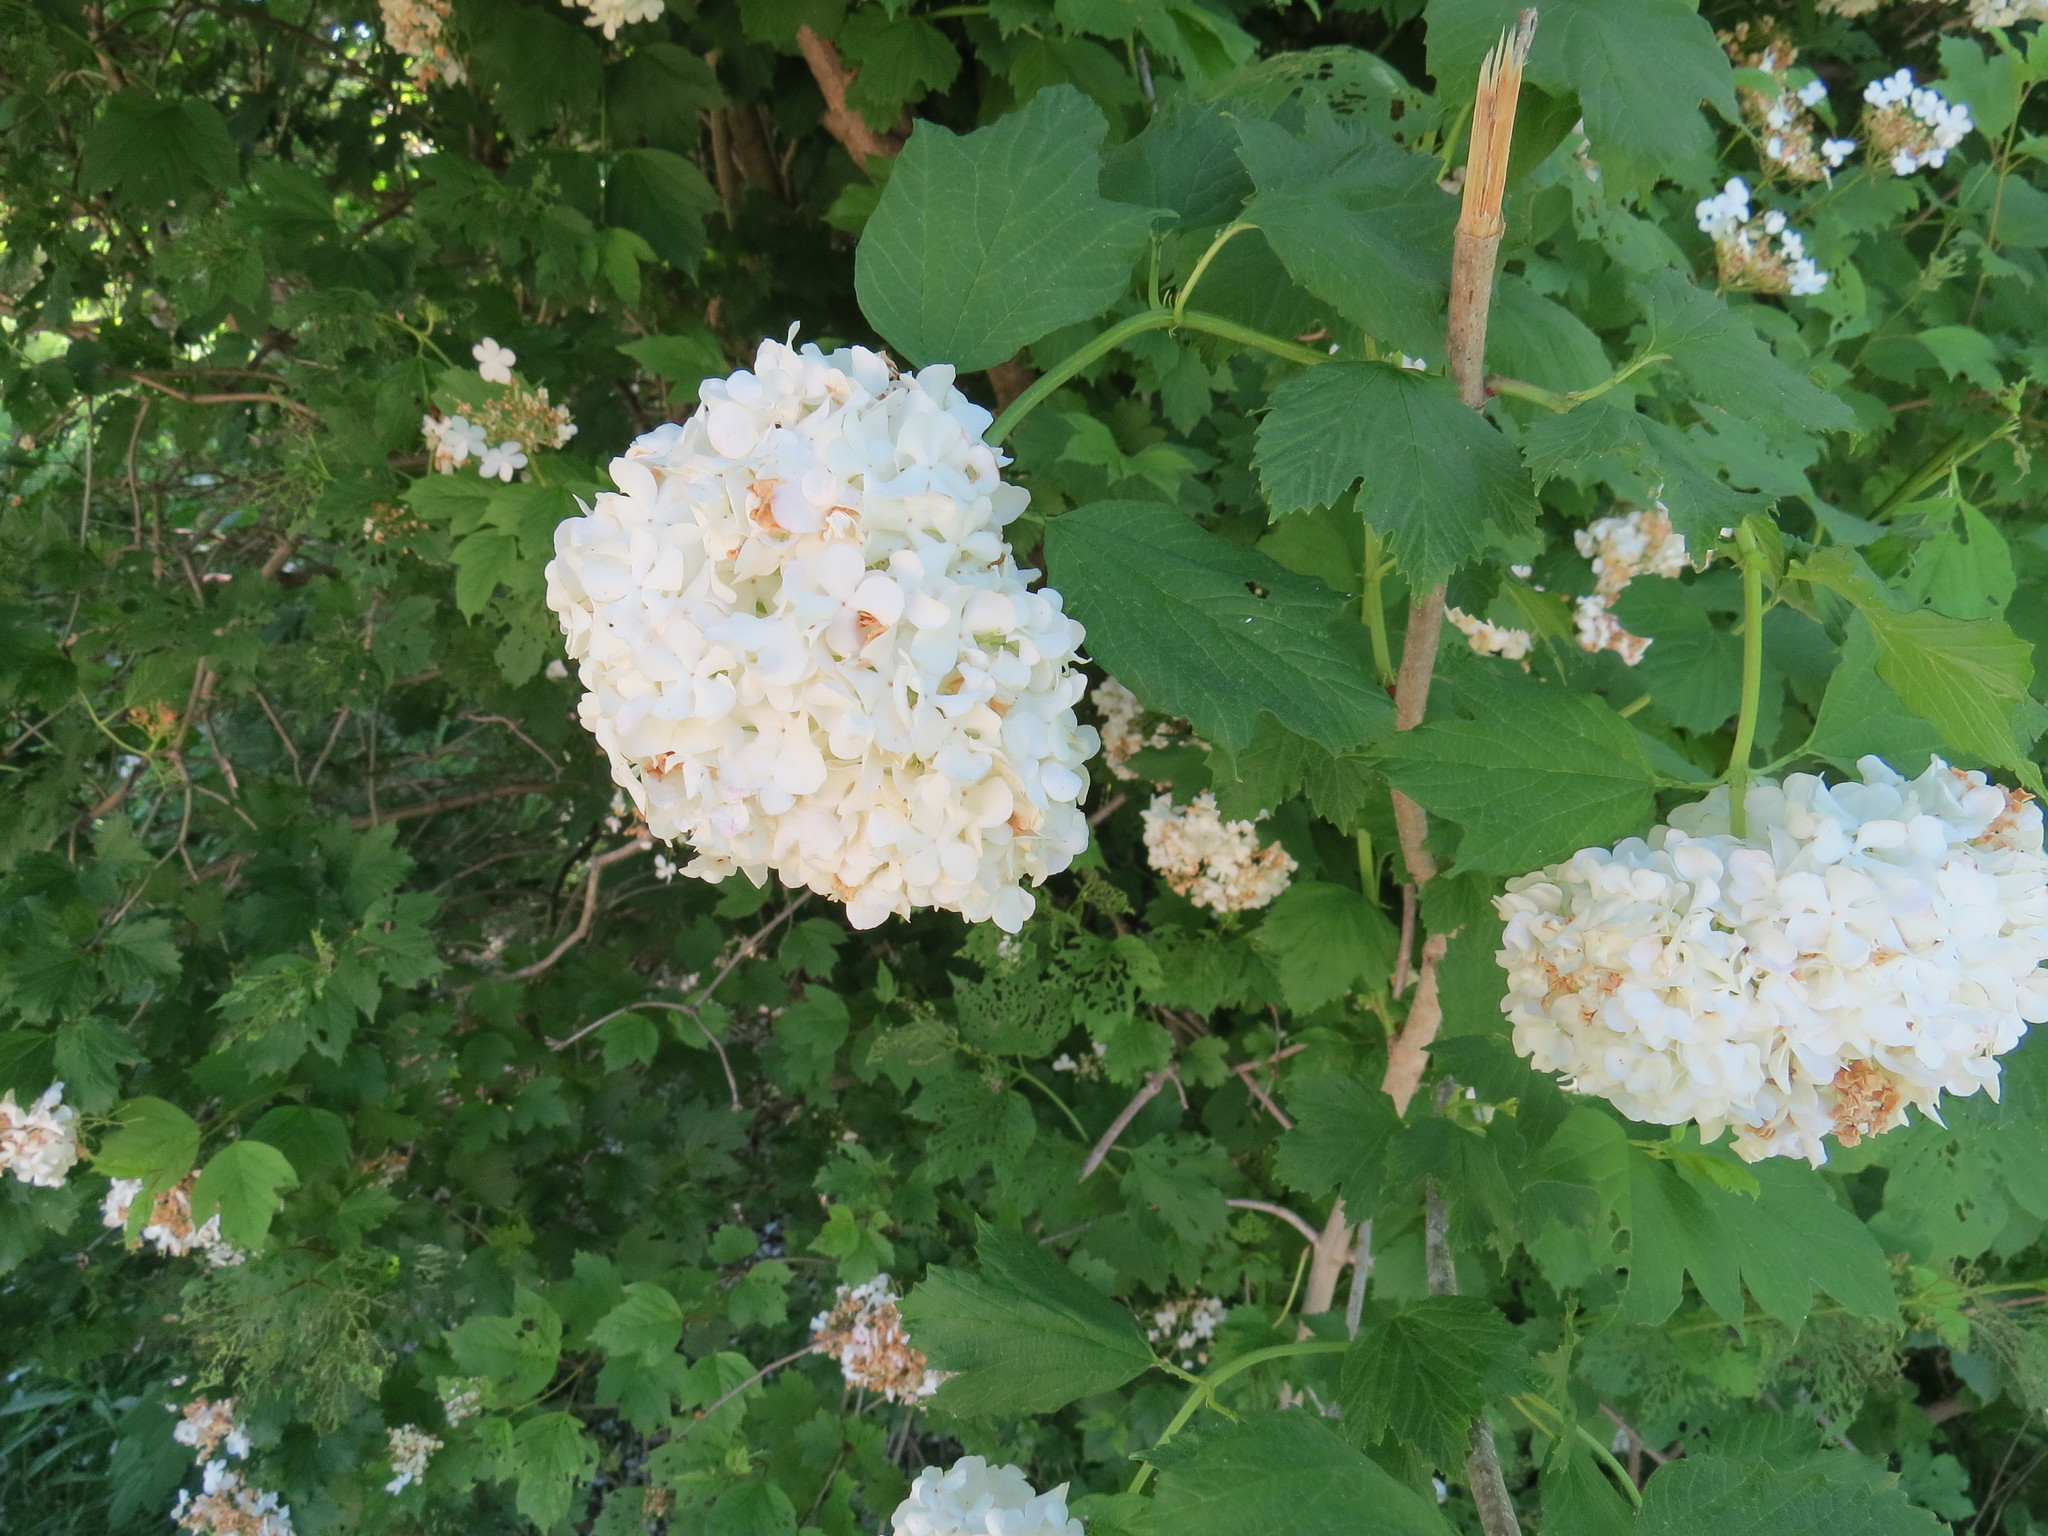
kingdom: Plantae
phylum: Tracheophyta
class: Magnoliopsida
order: Dipsacales
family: Viburnaceae
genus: Viburnum
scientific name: Viburnum opulus
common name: Guelder-rose
